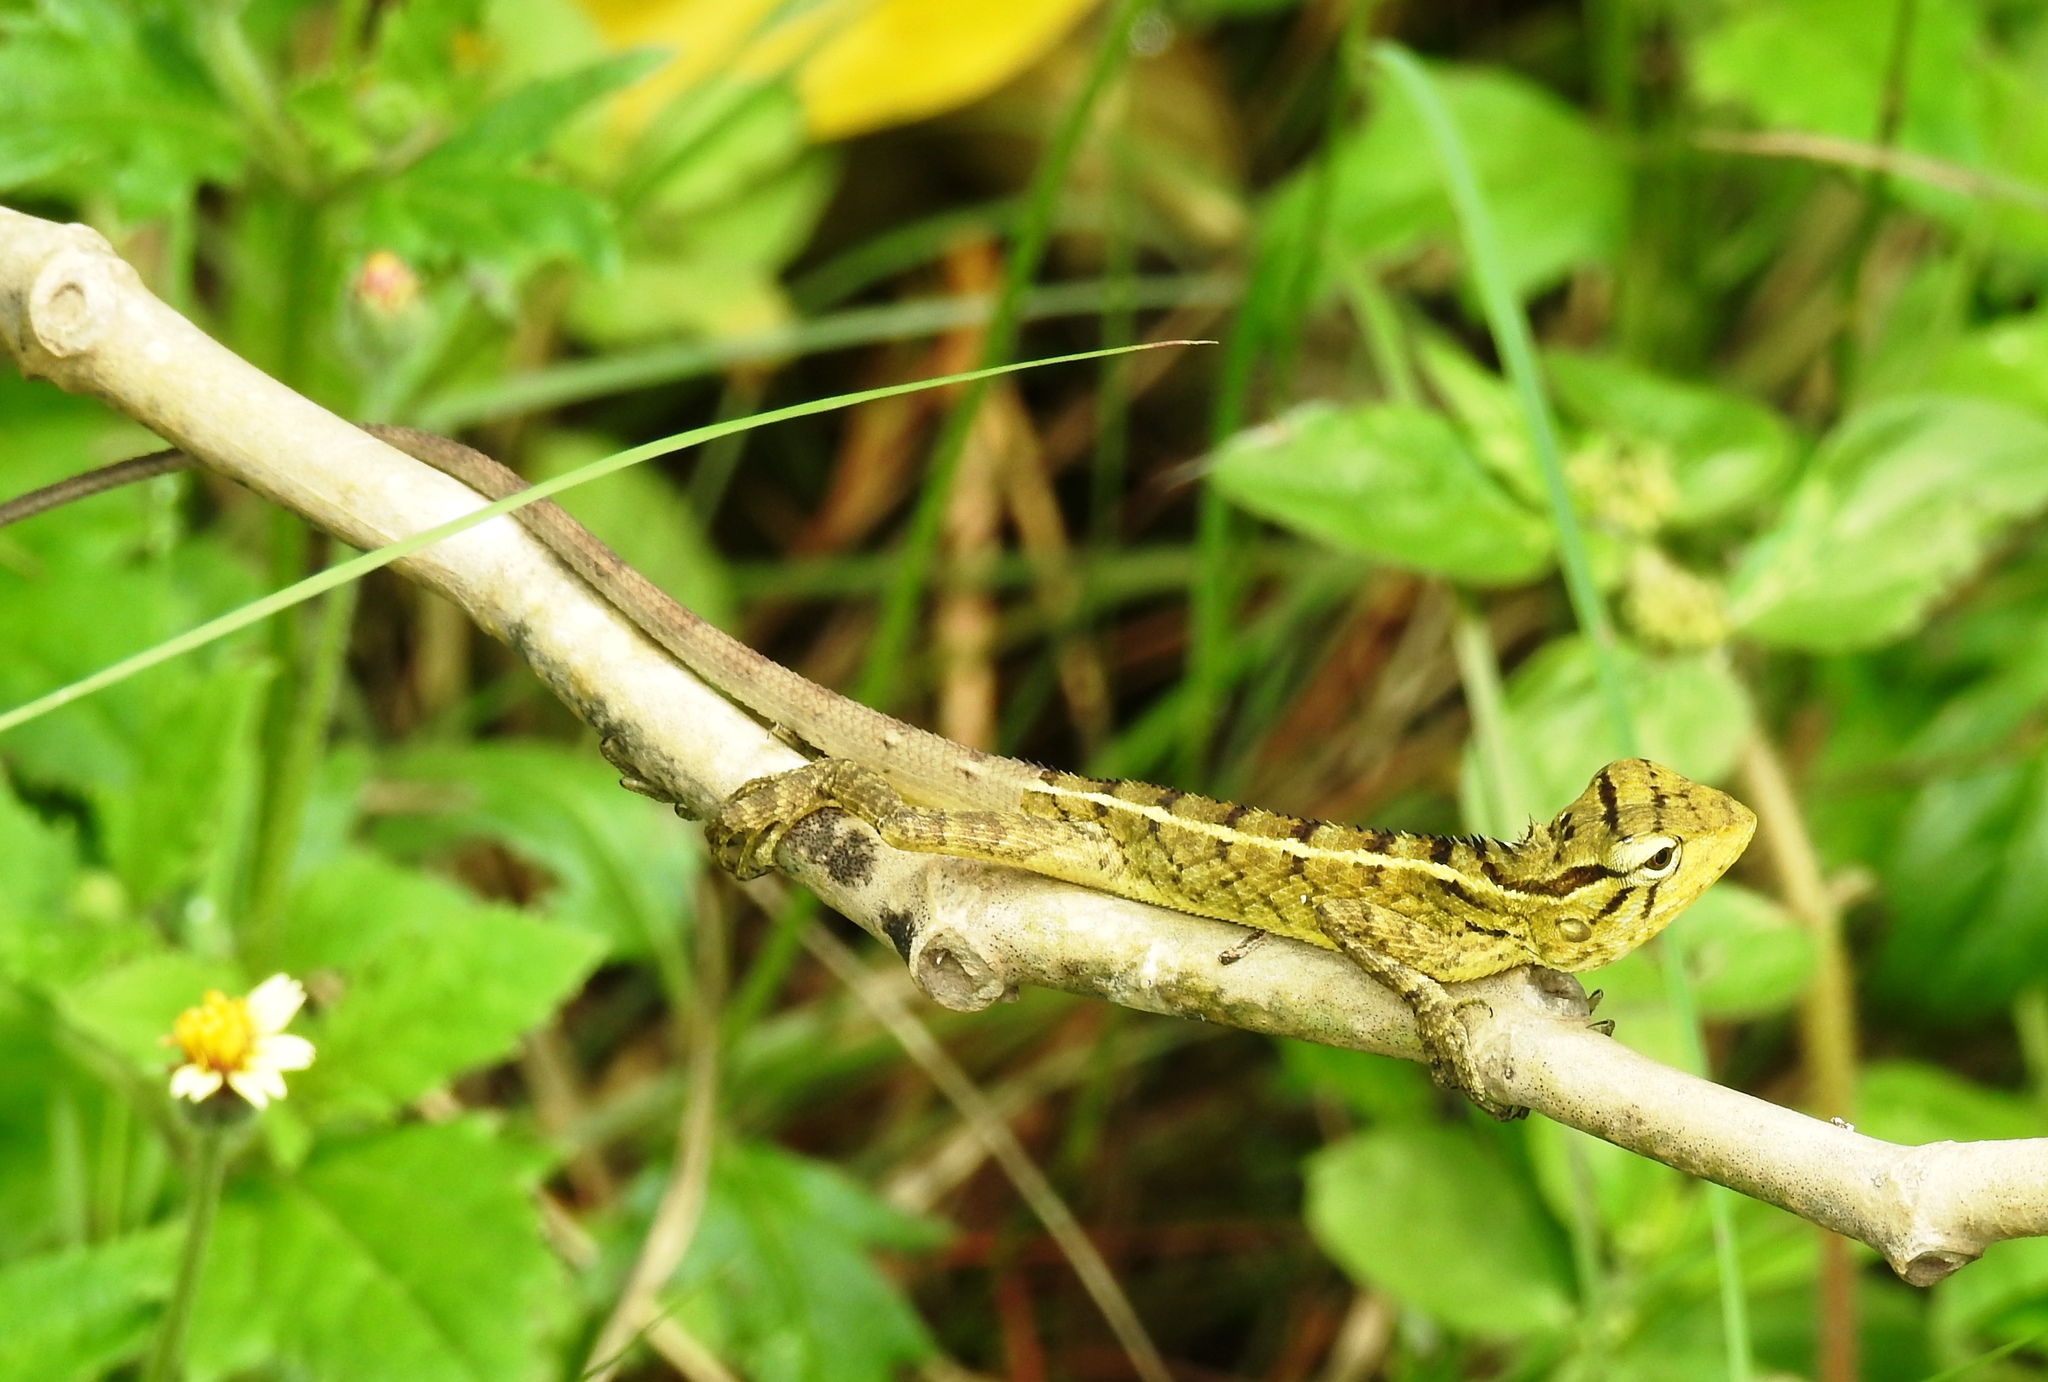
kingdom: Animalia
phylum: Chordata
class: Squamata
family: Agamidae
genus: Calotes
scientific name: Calotes versicolor
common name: Oriental garden lizard
